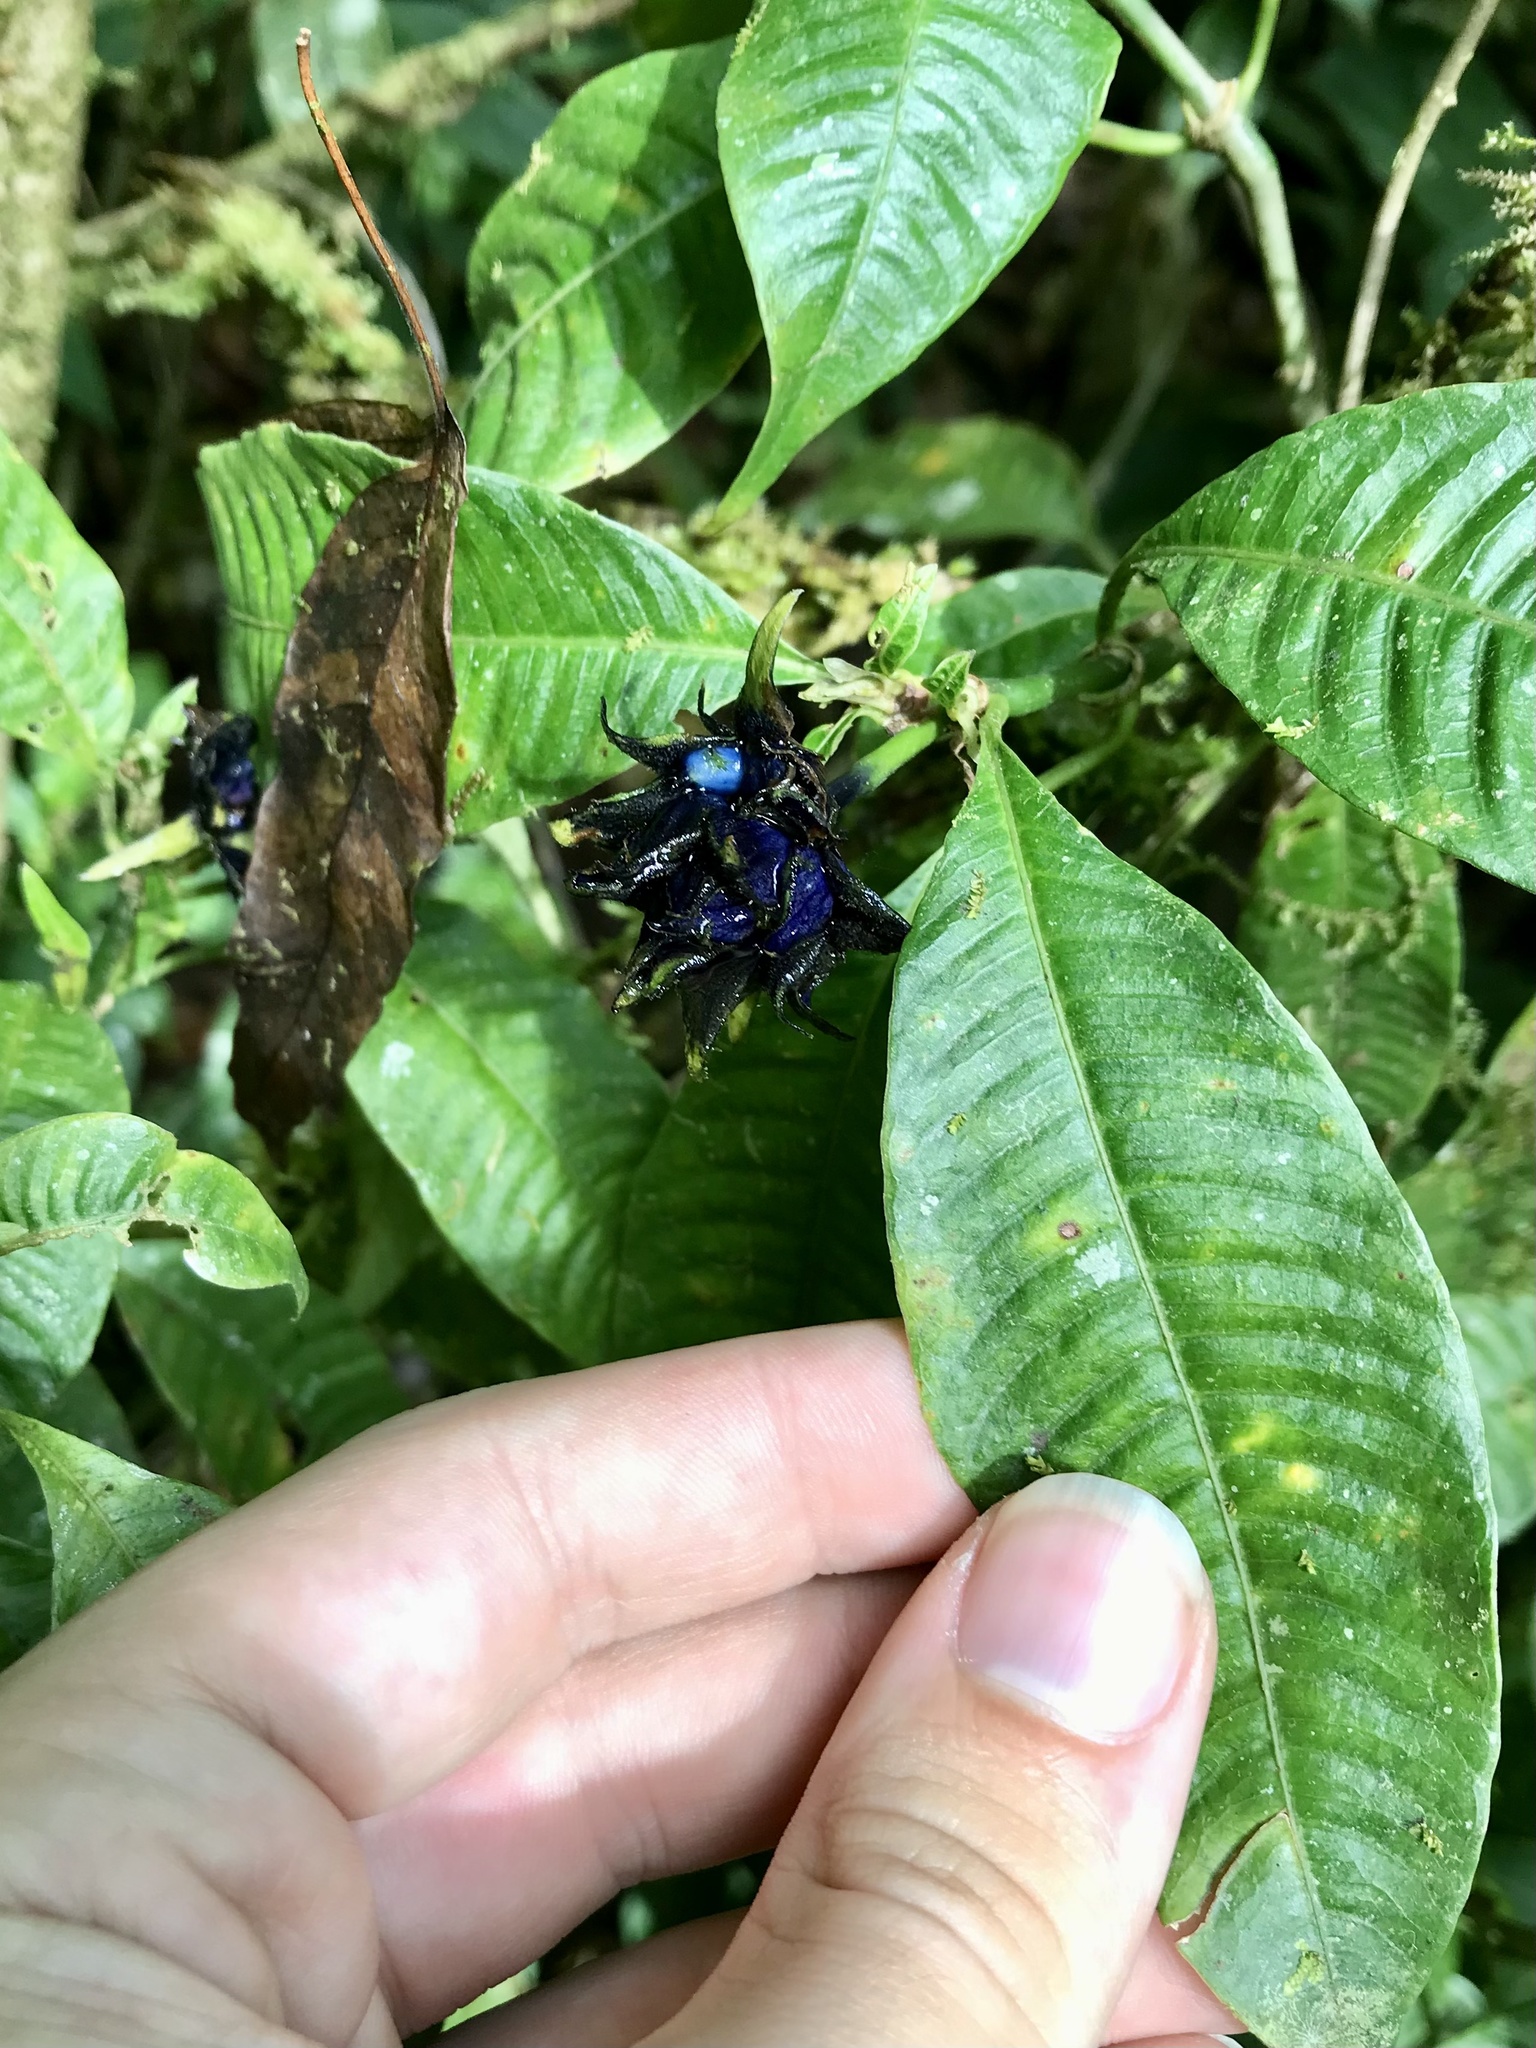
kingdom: Plantae
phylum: Tracheophyta
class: Magnoliopsida
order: Gentianales
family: Rubiaceae
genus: Palicourea
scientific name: Palicourea ramonensis
